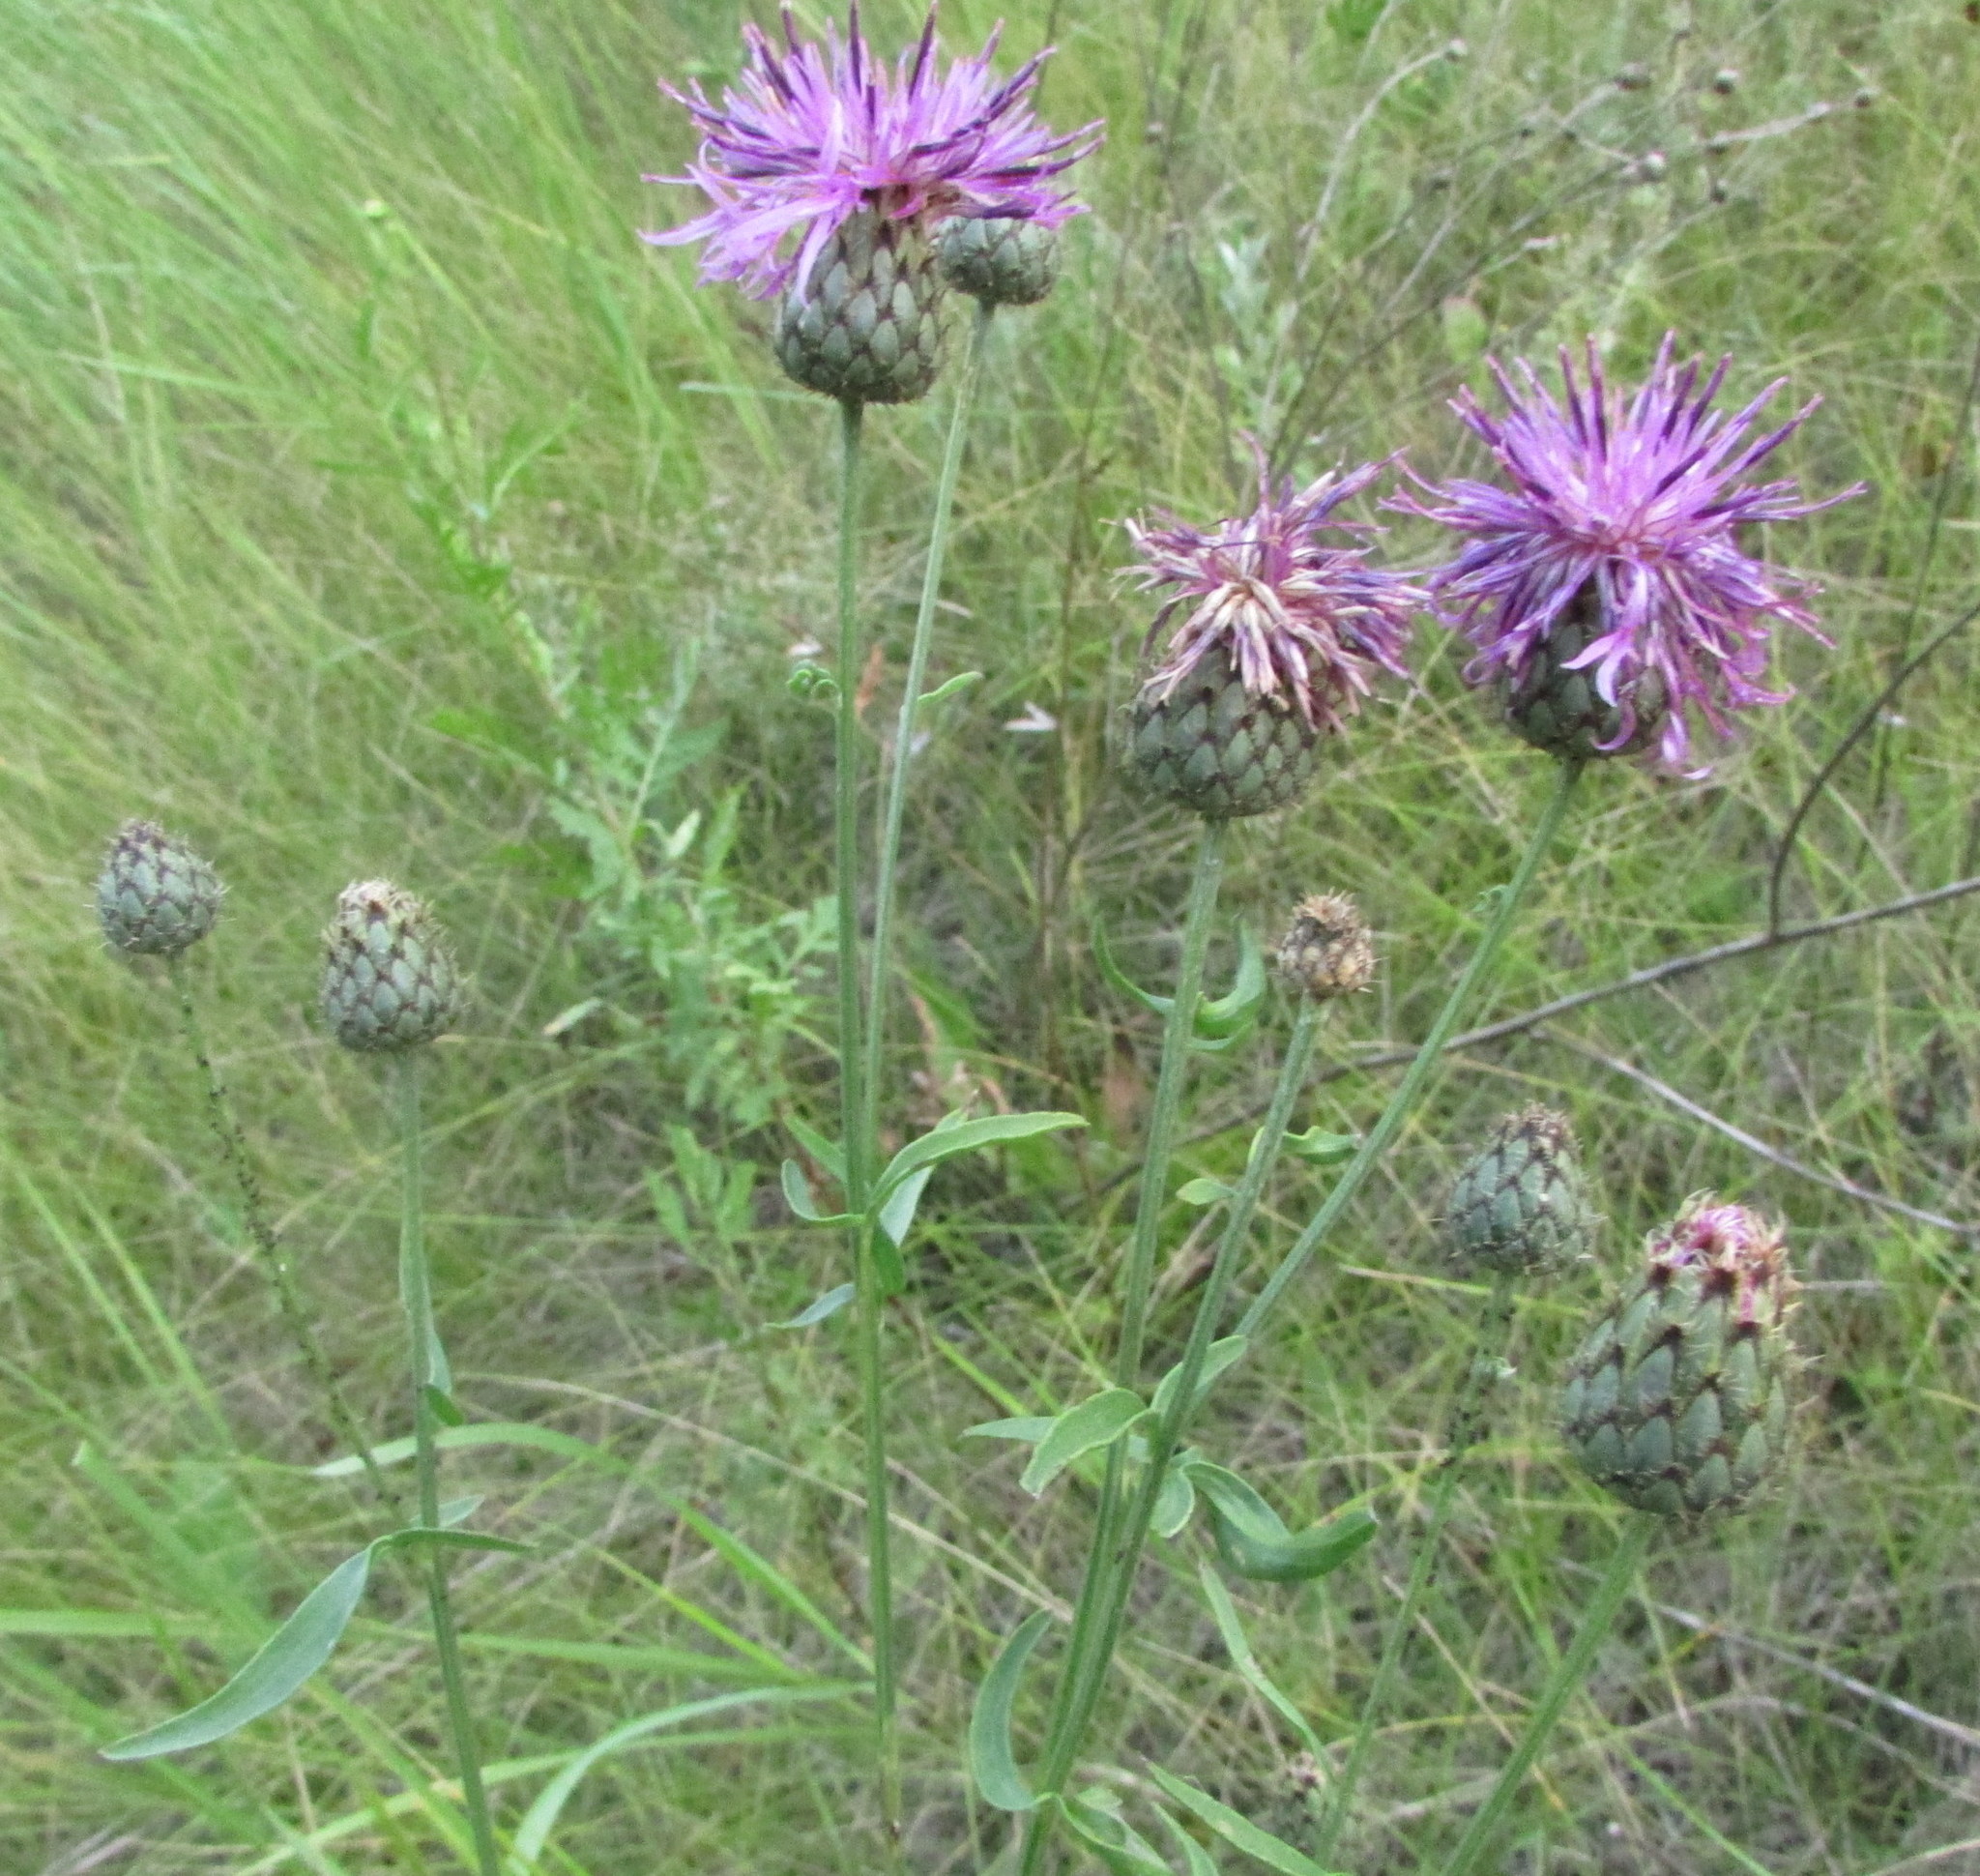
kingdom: Plantae
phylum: Tracheophyta
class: Magnoliopsida
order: Asterales
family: Asteraceae
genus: Centaurea
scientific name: Centaurea scabiosa
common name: Greater knapweed
